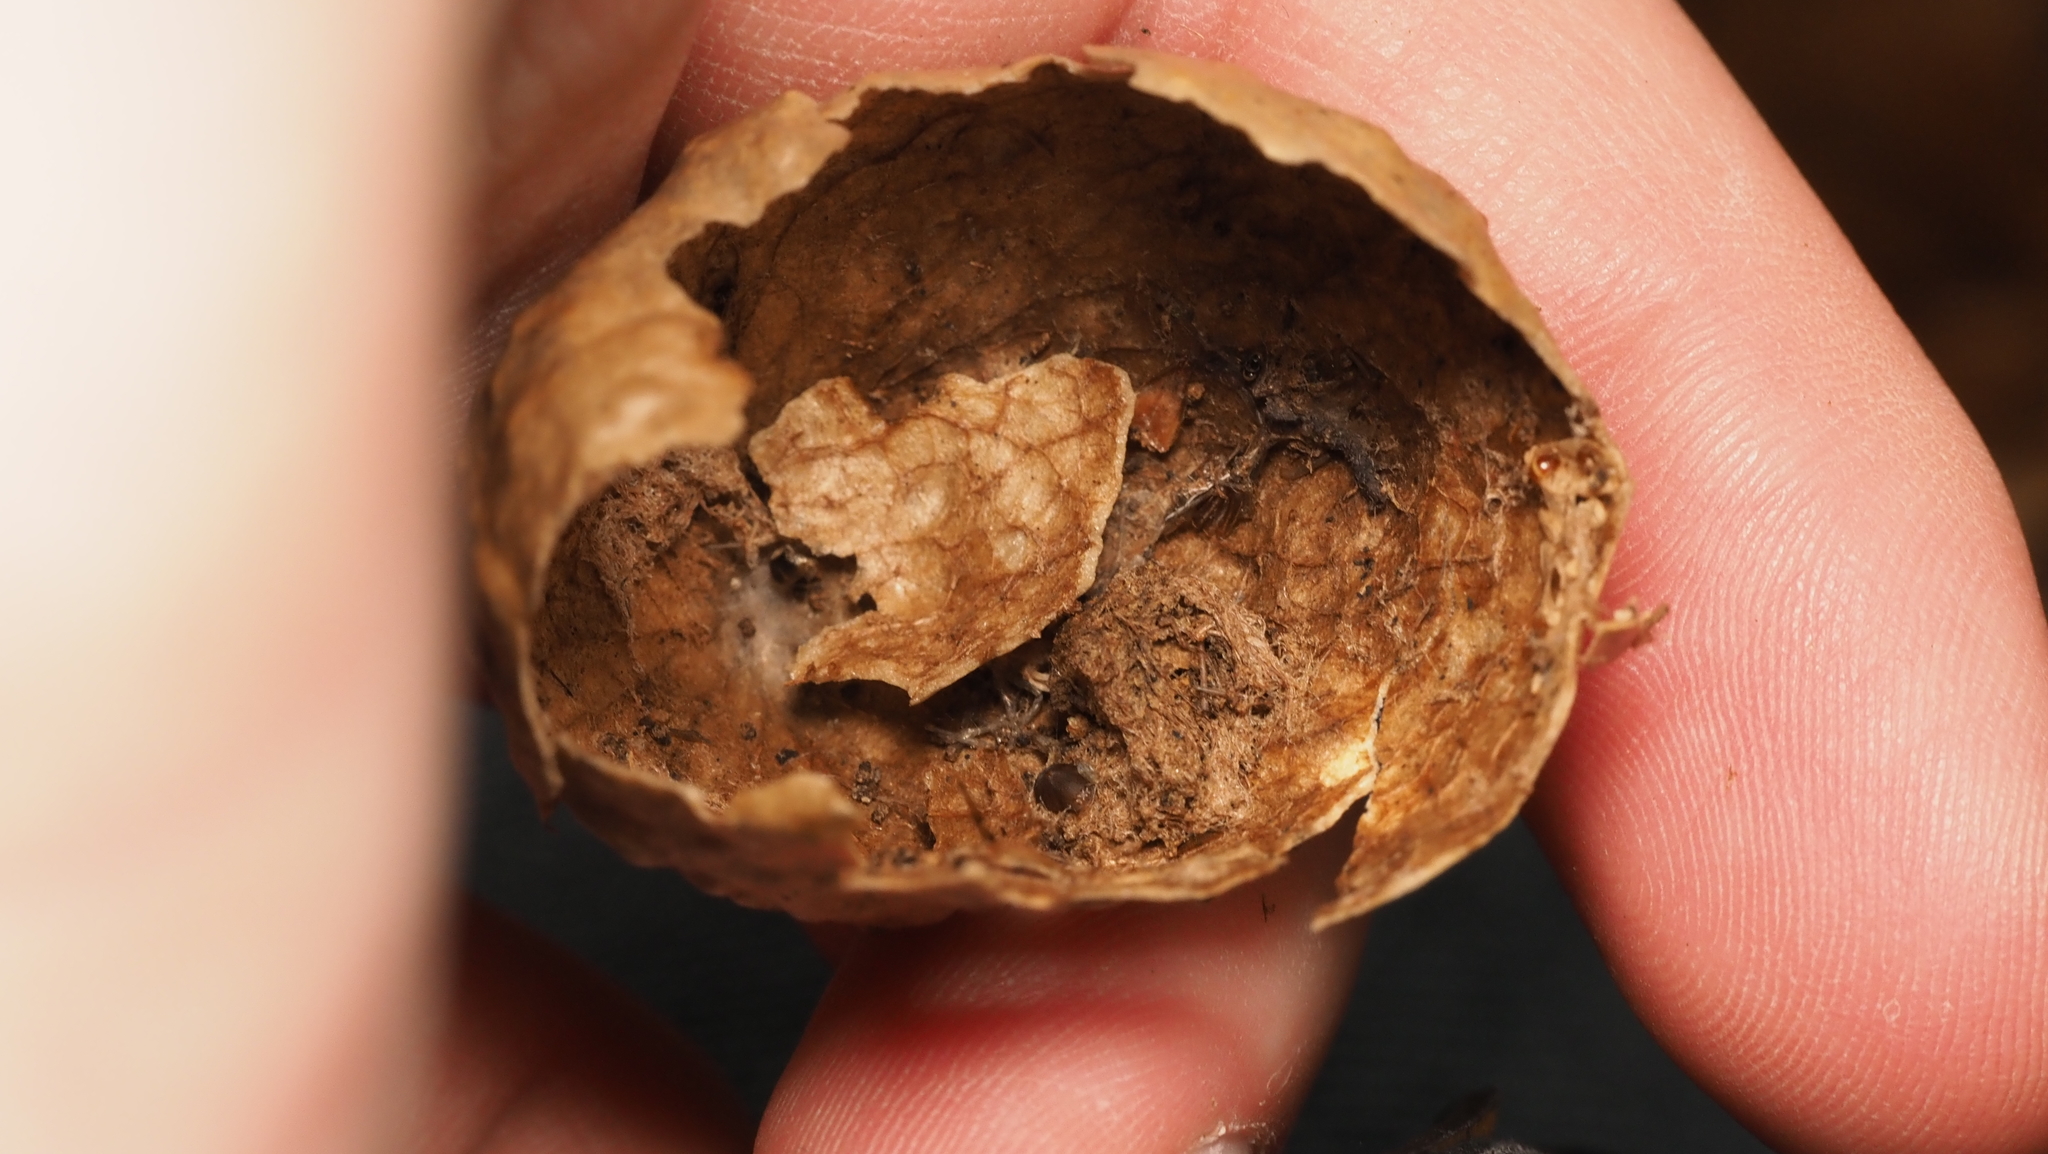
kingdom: Animalia
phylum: Arthropoda
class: Insecta
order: Hymenoptera
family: Cynipidae
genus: Amphibolips
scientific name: Amphibolips
